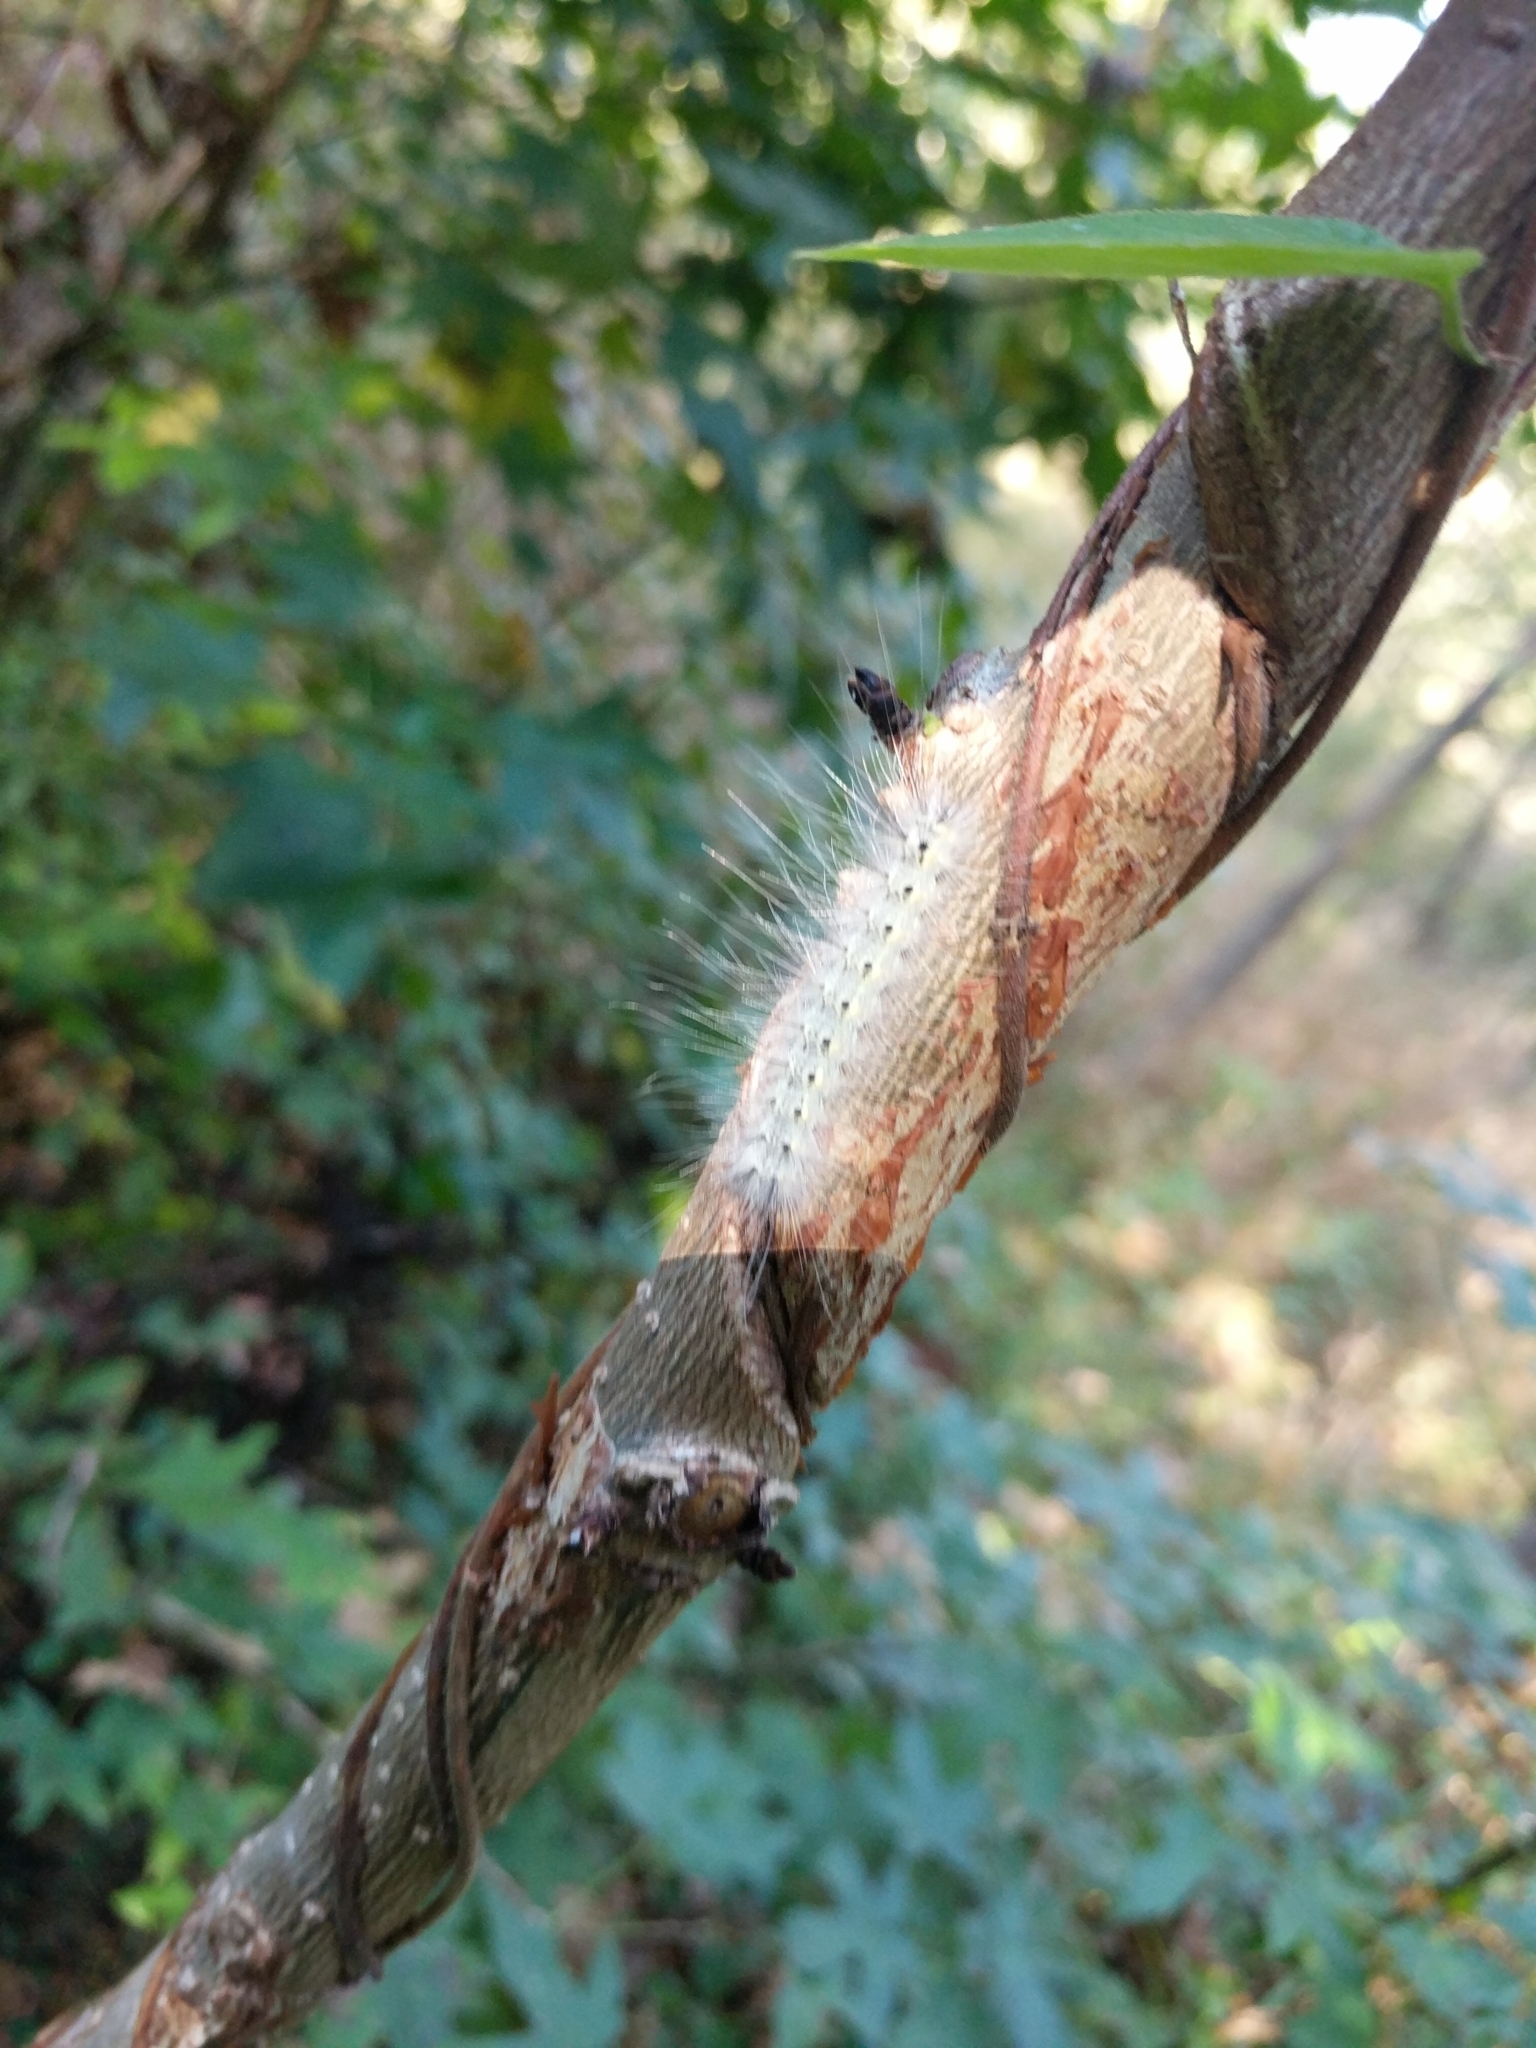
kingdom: Animalia
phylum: Arthropoda
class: Insecta
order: Lepidoptera
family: Erebidae
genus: Hyphantria
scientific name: Hyphantria cunea
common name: American white moth
